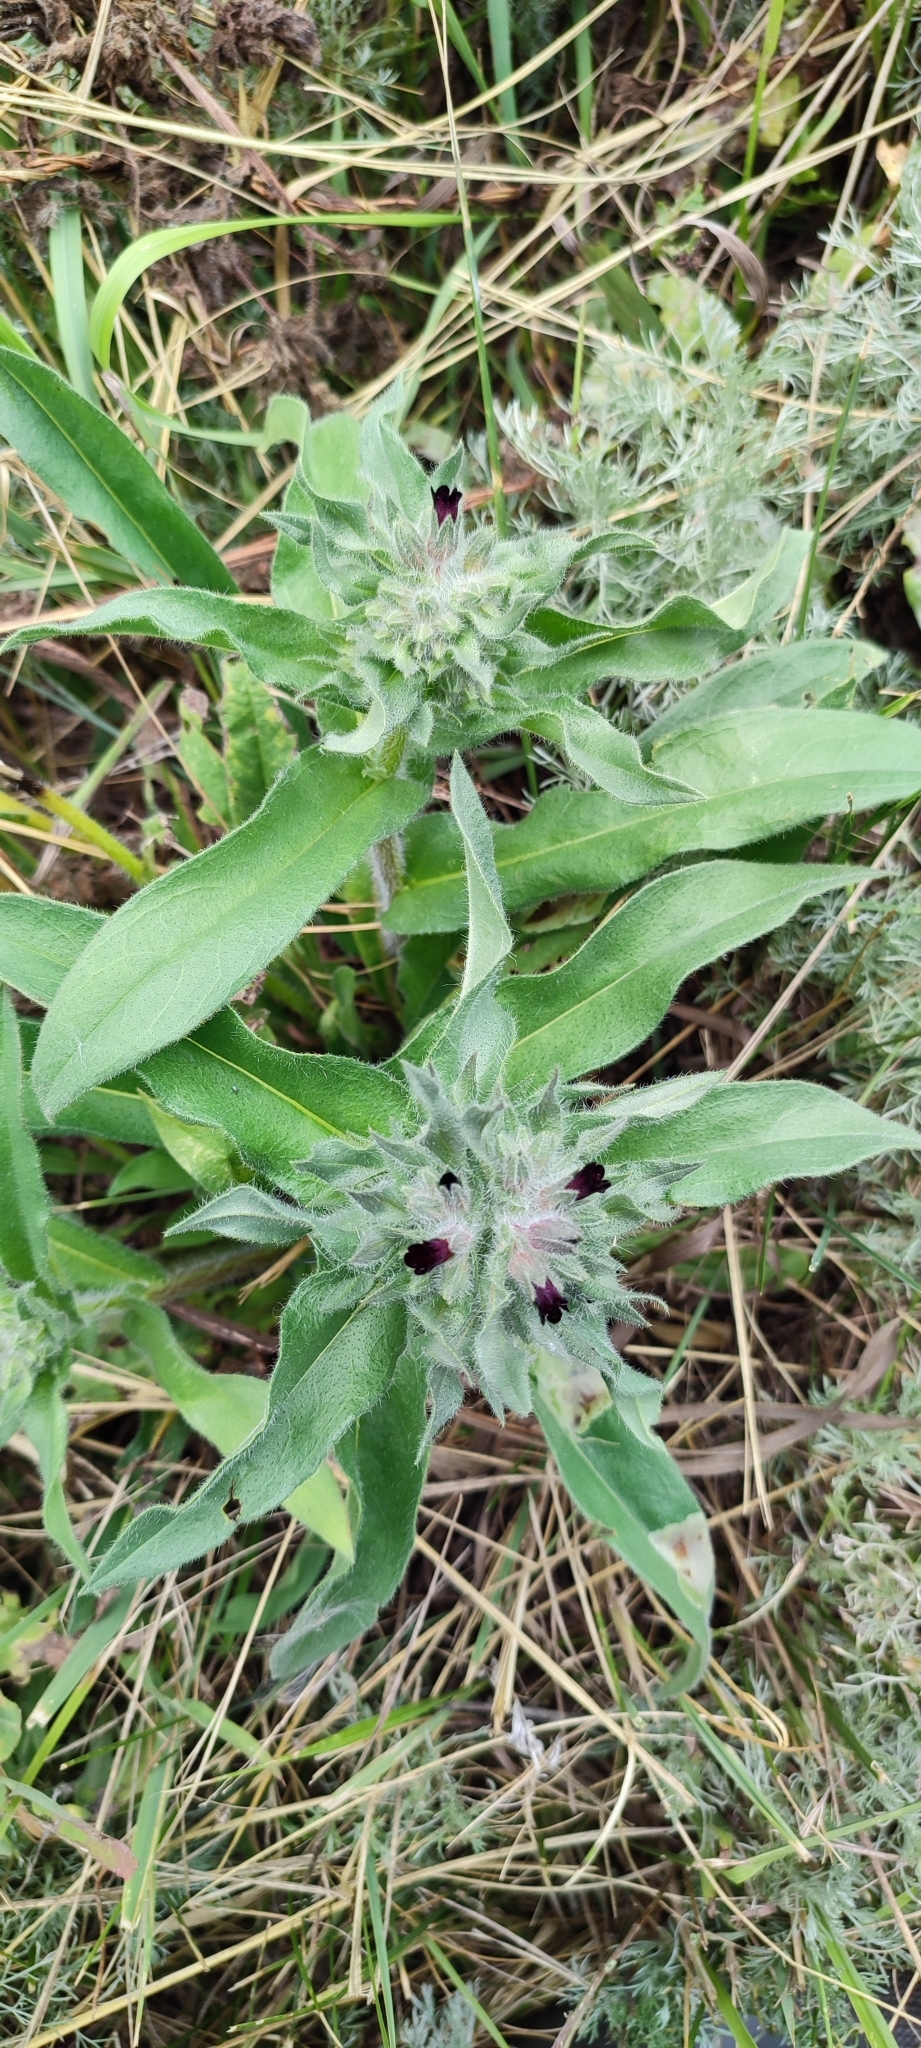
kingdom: Plantae
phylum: Tracheophyta
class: Magnoliopsida
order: Boraginales
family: Boraginaceae
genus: Nonea
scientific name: Nonea pulla
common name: Brown nonea
